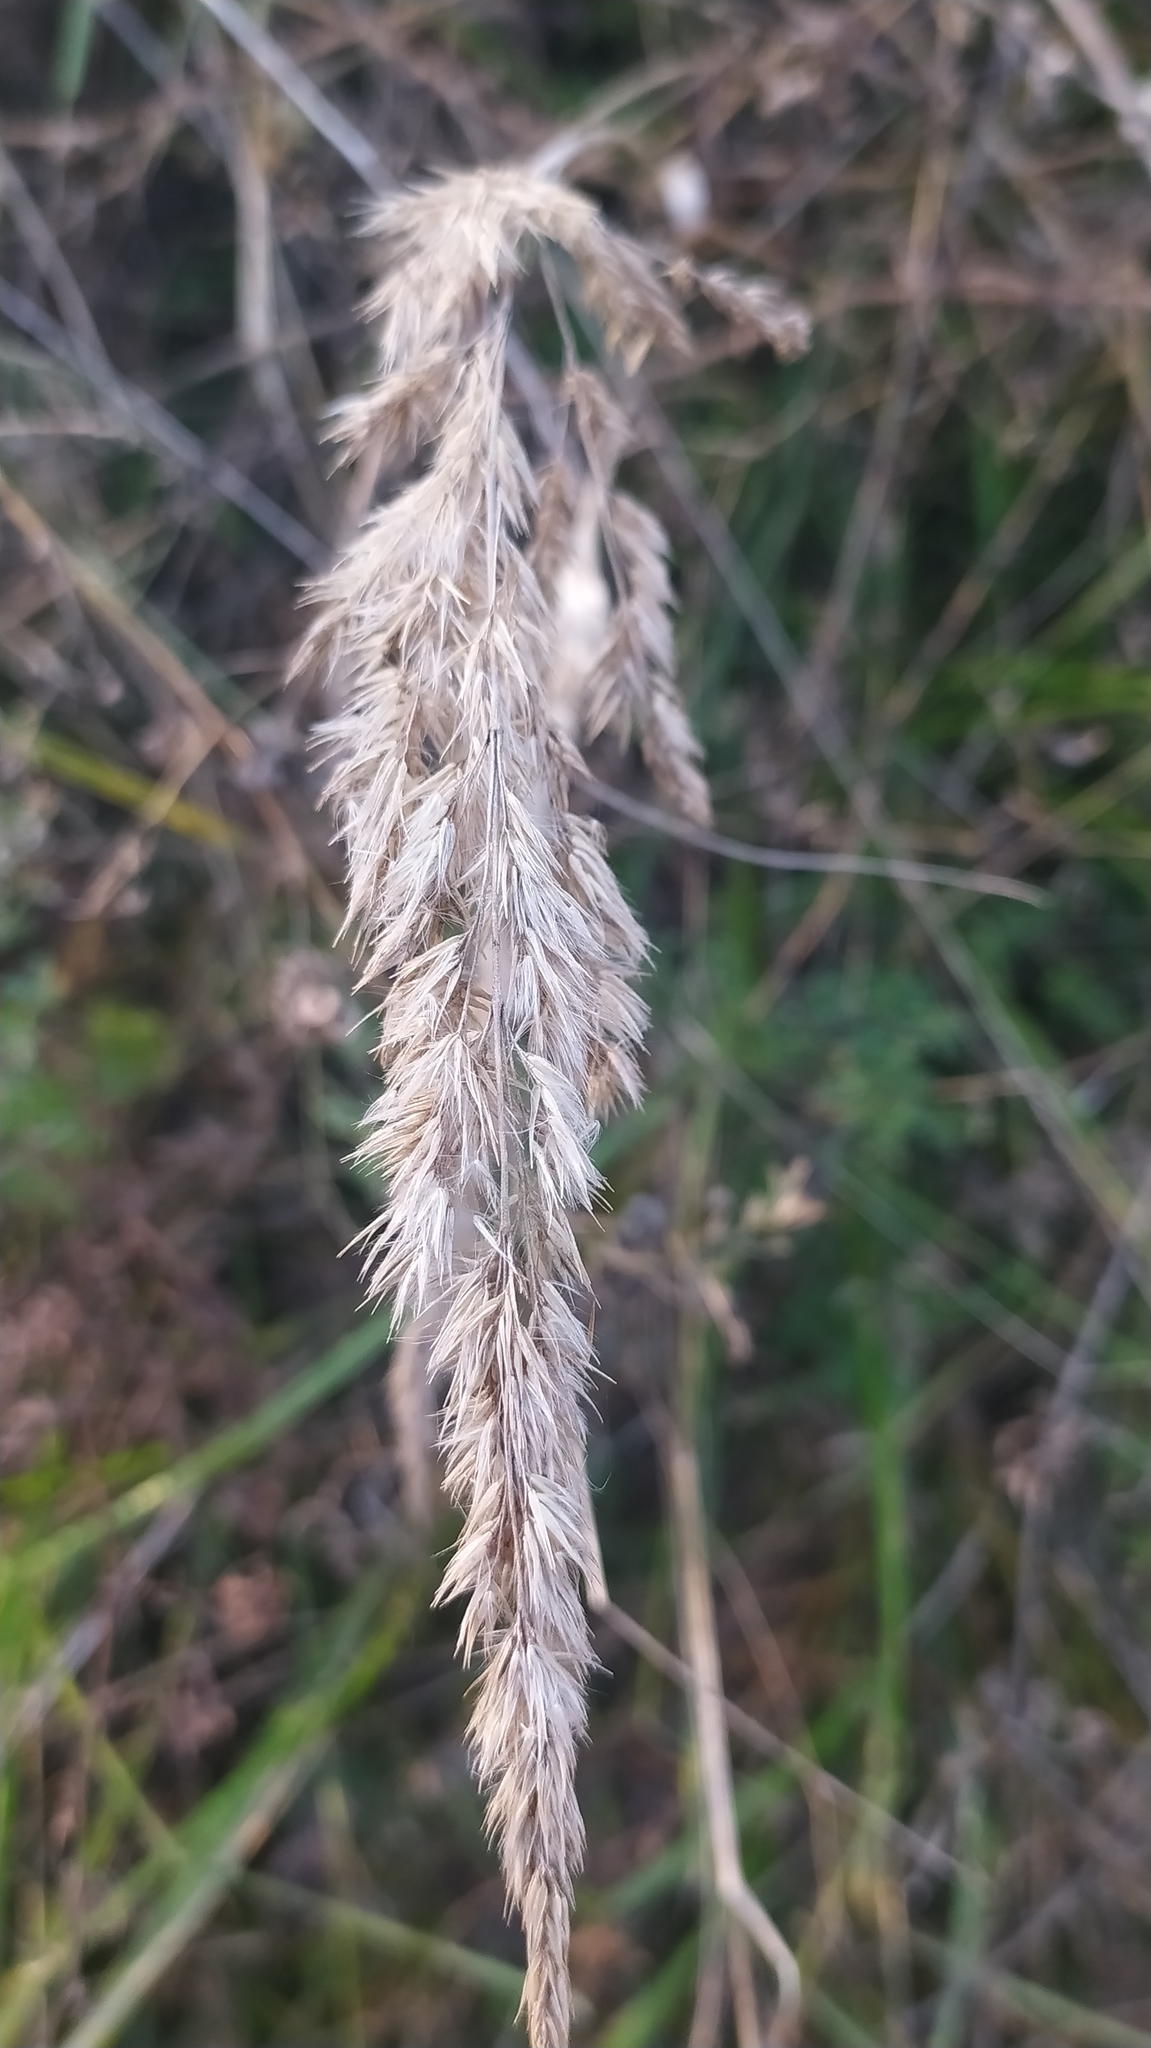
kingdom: Plantae
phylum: Tracheophyta
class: Liliopsida
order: Poales
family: Poaceae
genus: Calamagrostis
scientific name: Calamagrostis epigejos
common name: Wood small-reed
